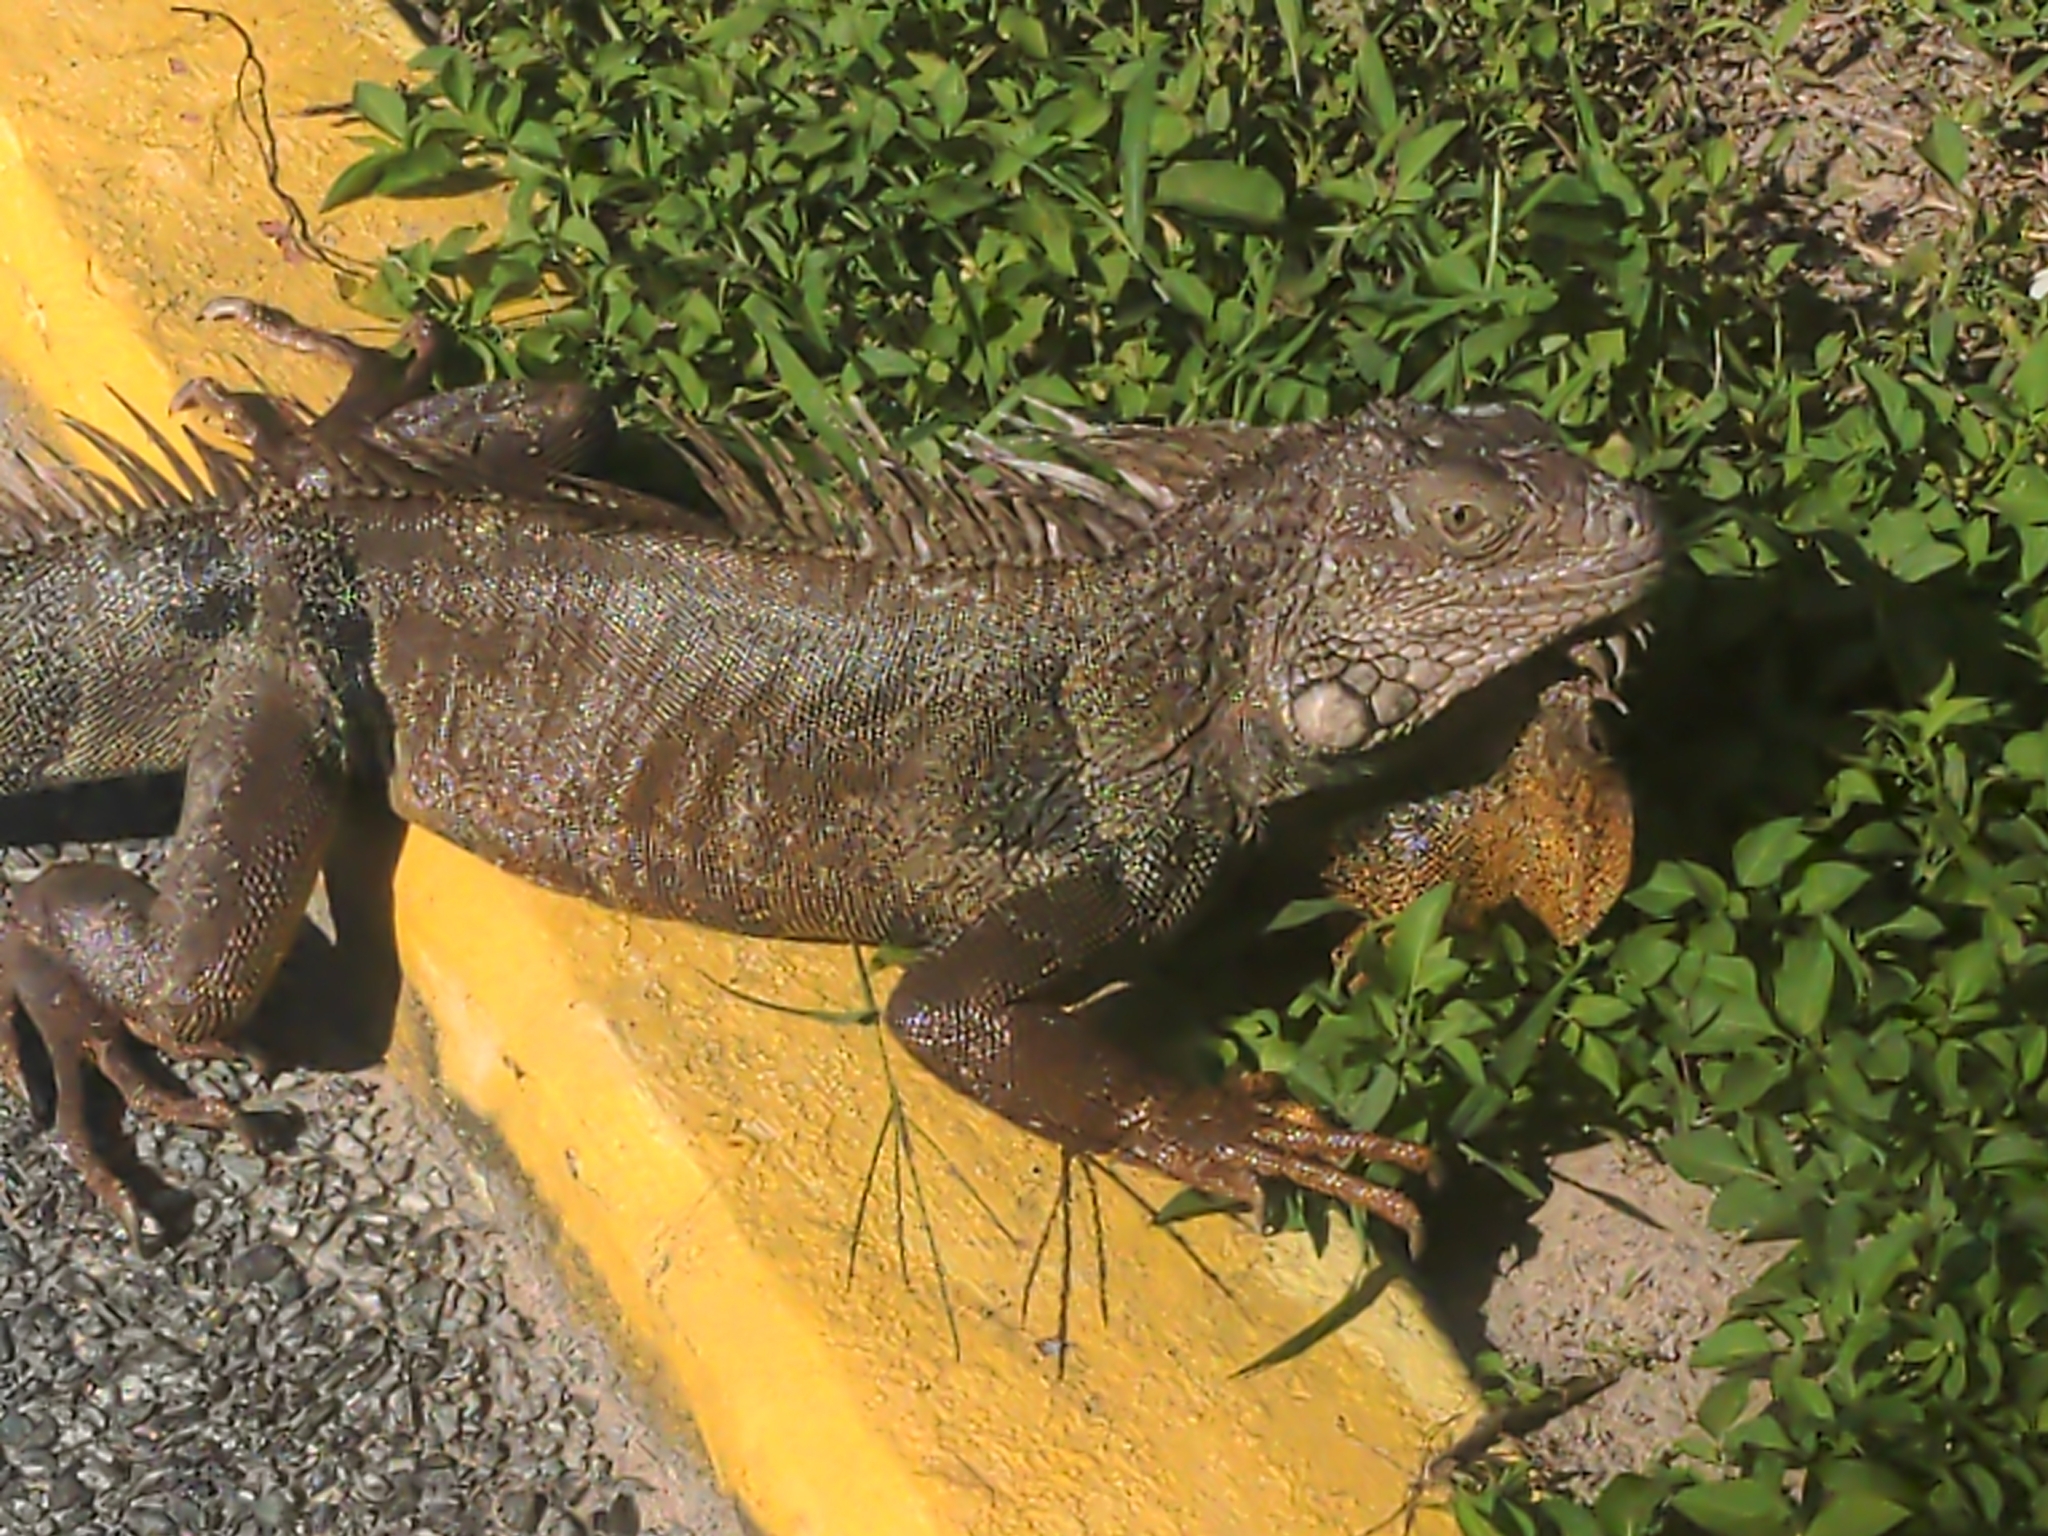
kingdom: Animalia
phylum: Chordata
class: Squamata
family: Iguanidae
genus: Iguana
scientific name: Iguana iguana
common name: Green iguana
